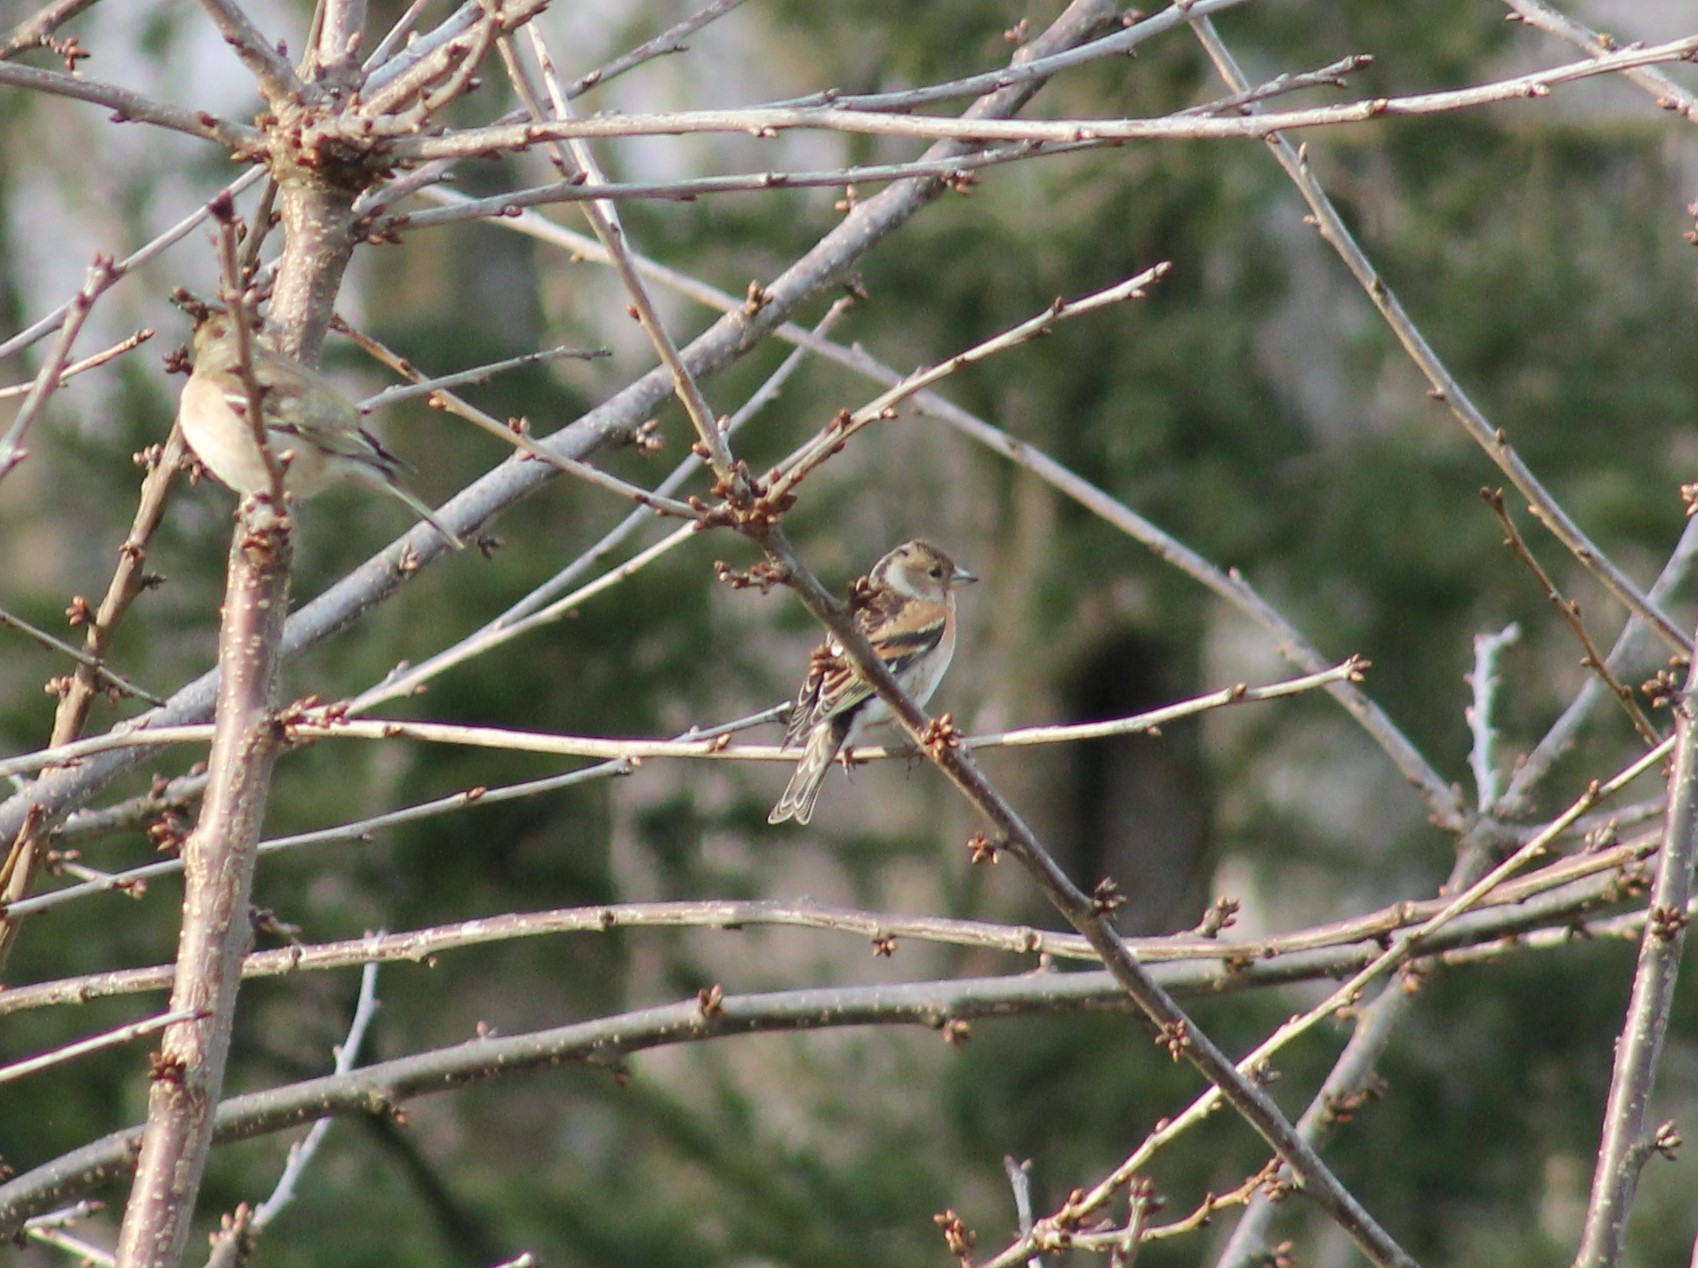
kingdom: Animalia
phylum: Chordata
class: Aves
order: Passeriformes
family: Fringillidae
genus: Fringilla
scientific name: Fringilla montifringilla
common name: Brambling
